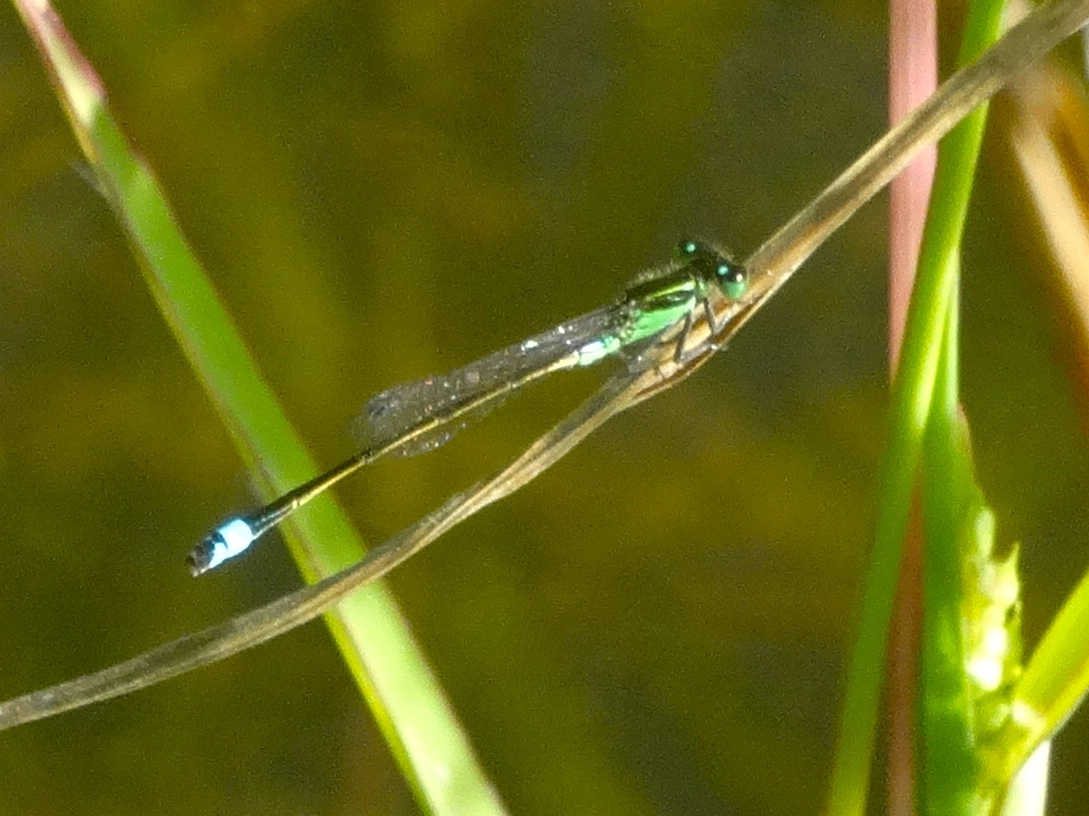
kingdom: Animalia
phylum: Arthropoda
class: Insecta
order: Odonata
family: Coenagrionidae
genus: Ischnura
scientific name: Ischnura ramburii
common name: Rambur's forktail
